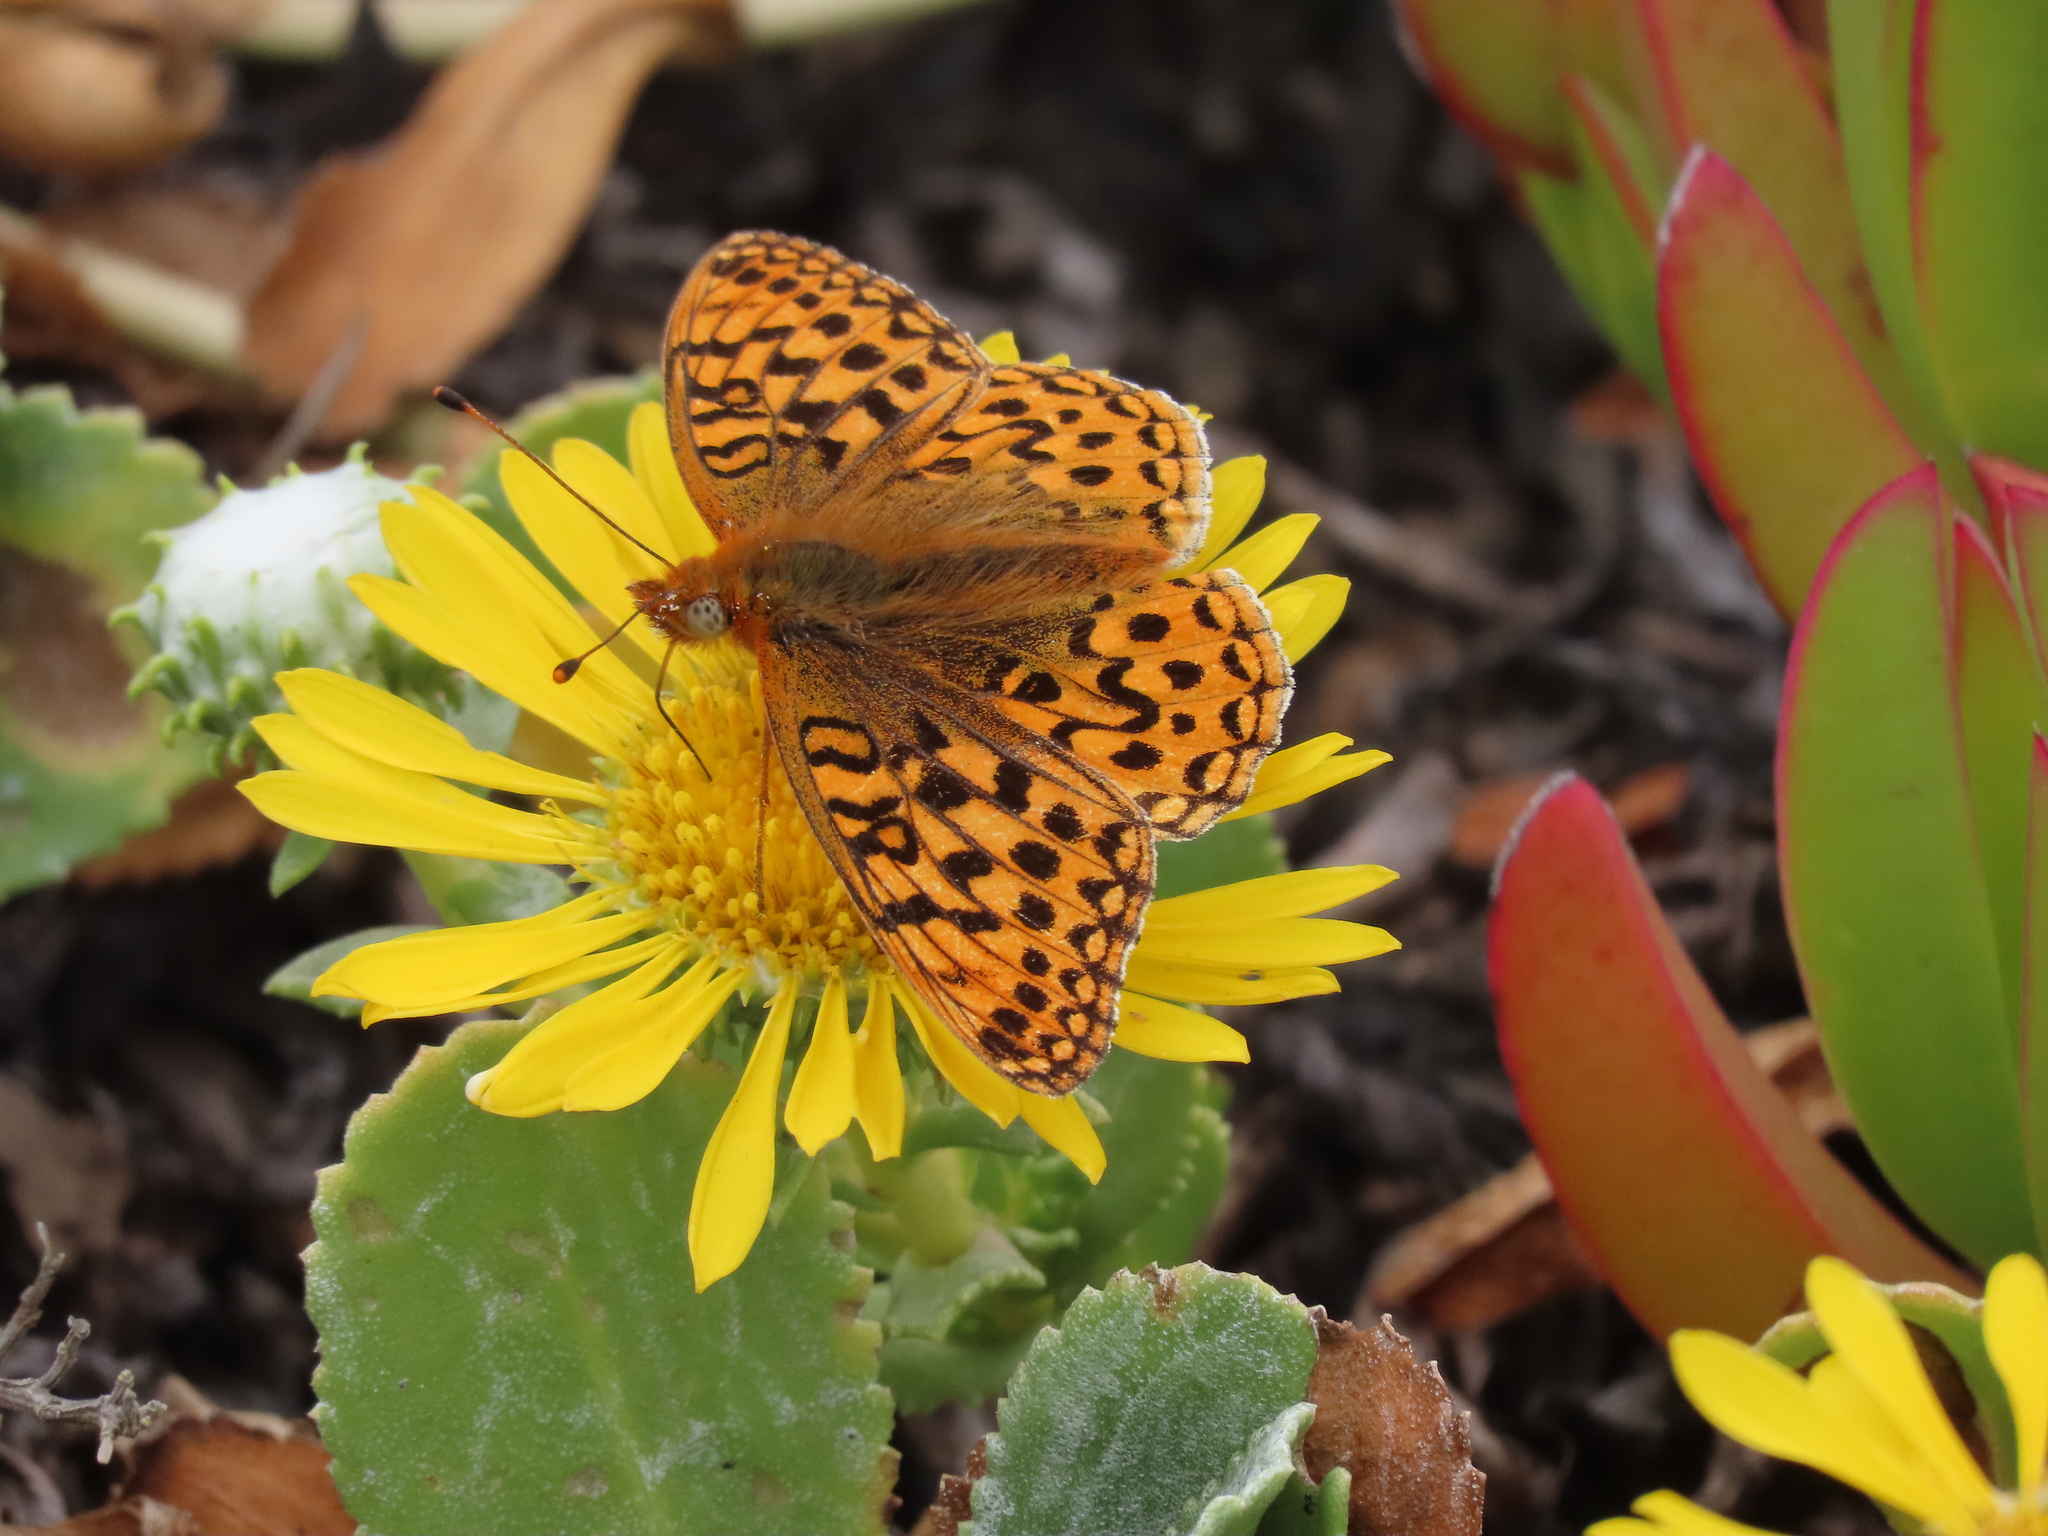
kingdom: Animalia
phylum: Arthropoda
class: Insecta
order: Lepidoptera
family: Nymphalidae
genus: Speyeria
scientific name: Speyeria zerene
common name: Zerene fritillary
